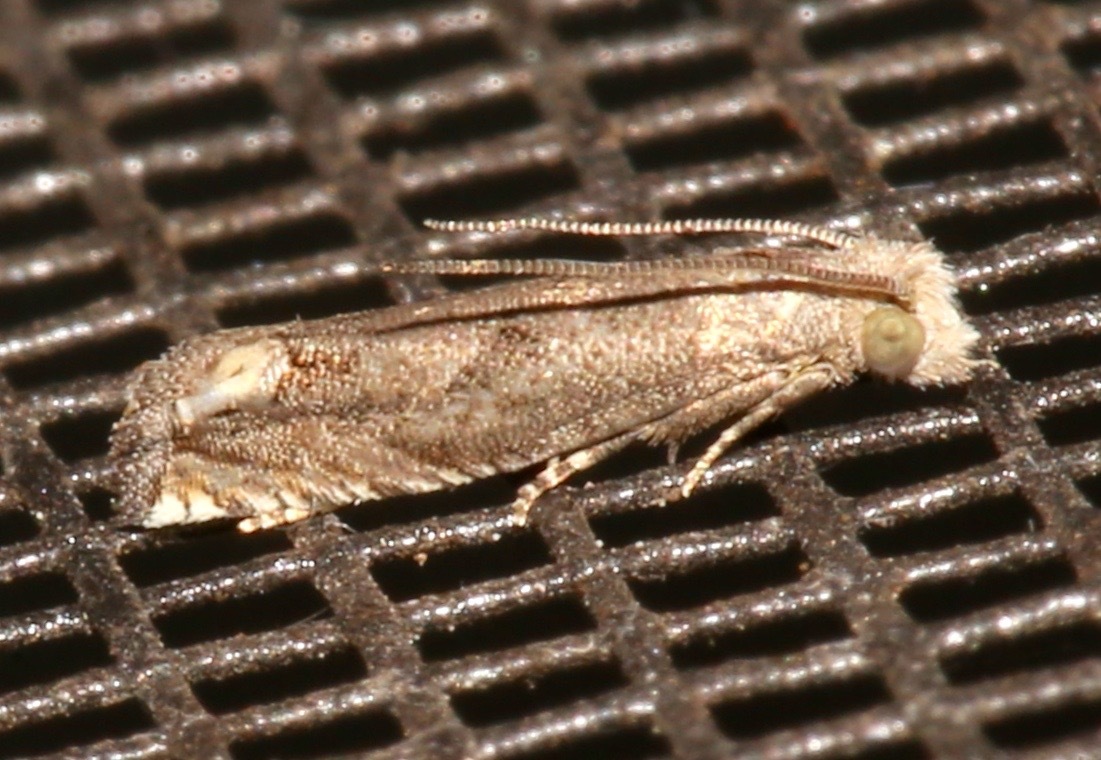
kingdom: Animalia
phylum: Arthropoda
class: Insecta
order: Lepidoptera
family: Tortricidae
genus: Epiblema
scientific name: Epiblema strenuana
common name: Ragweed borer moth
